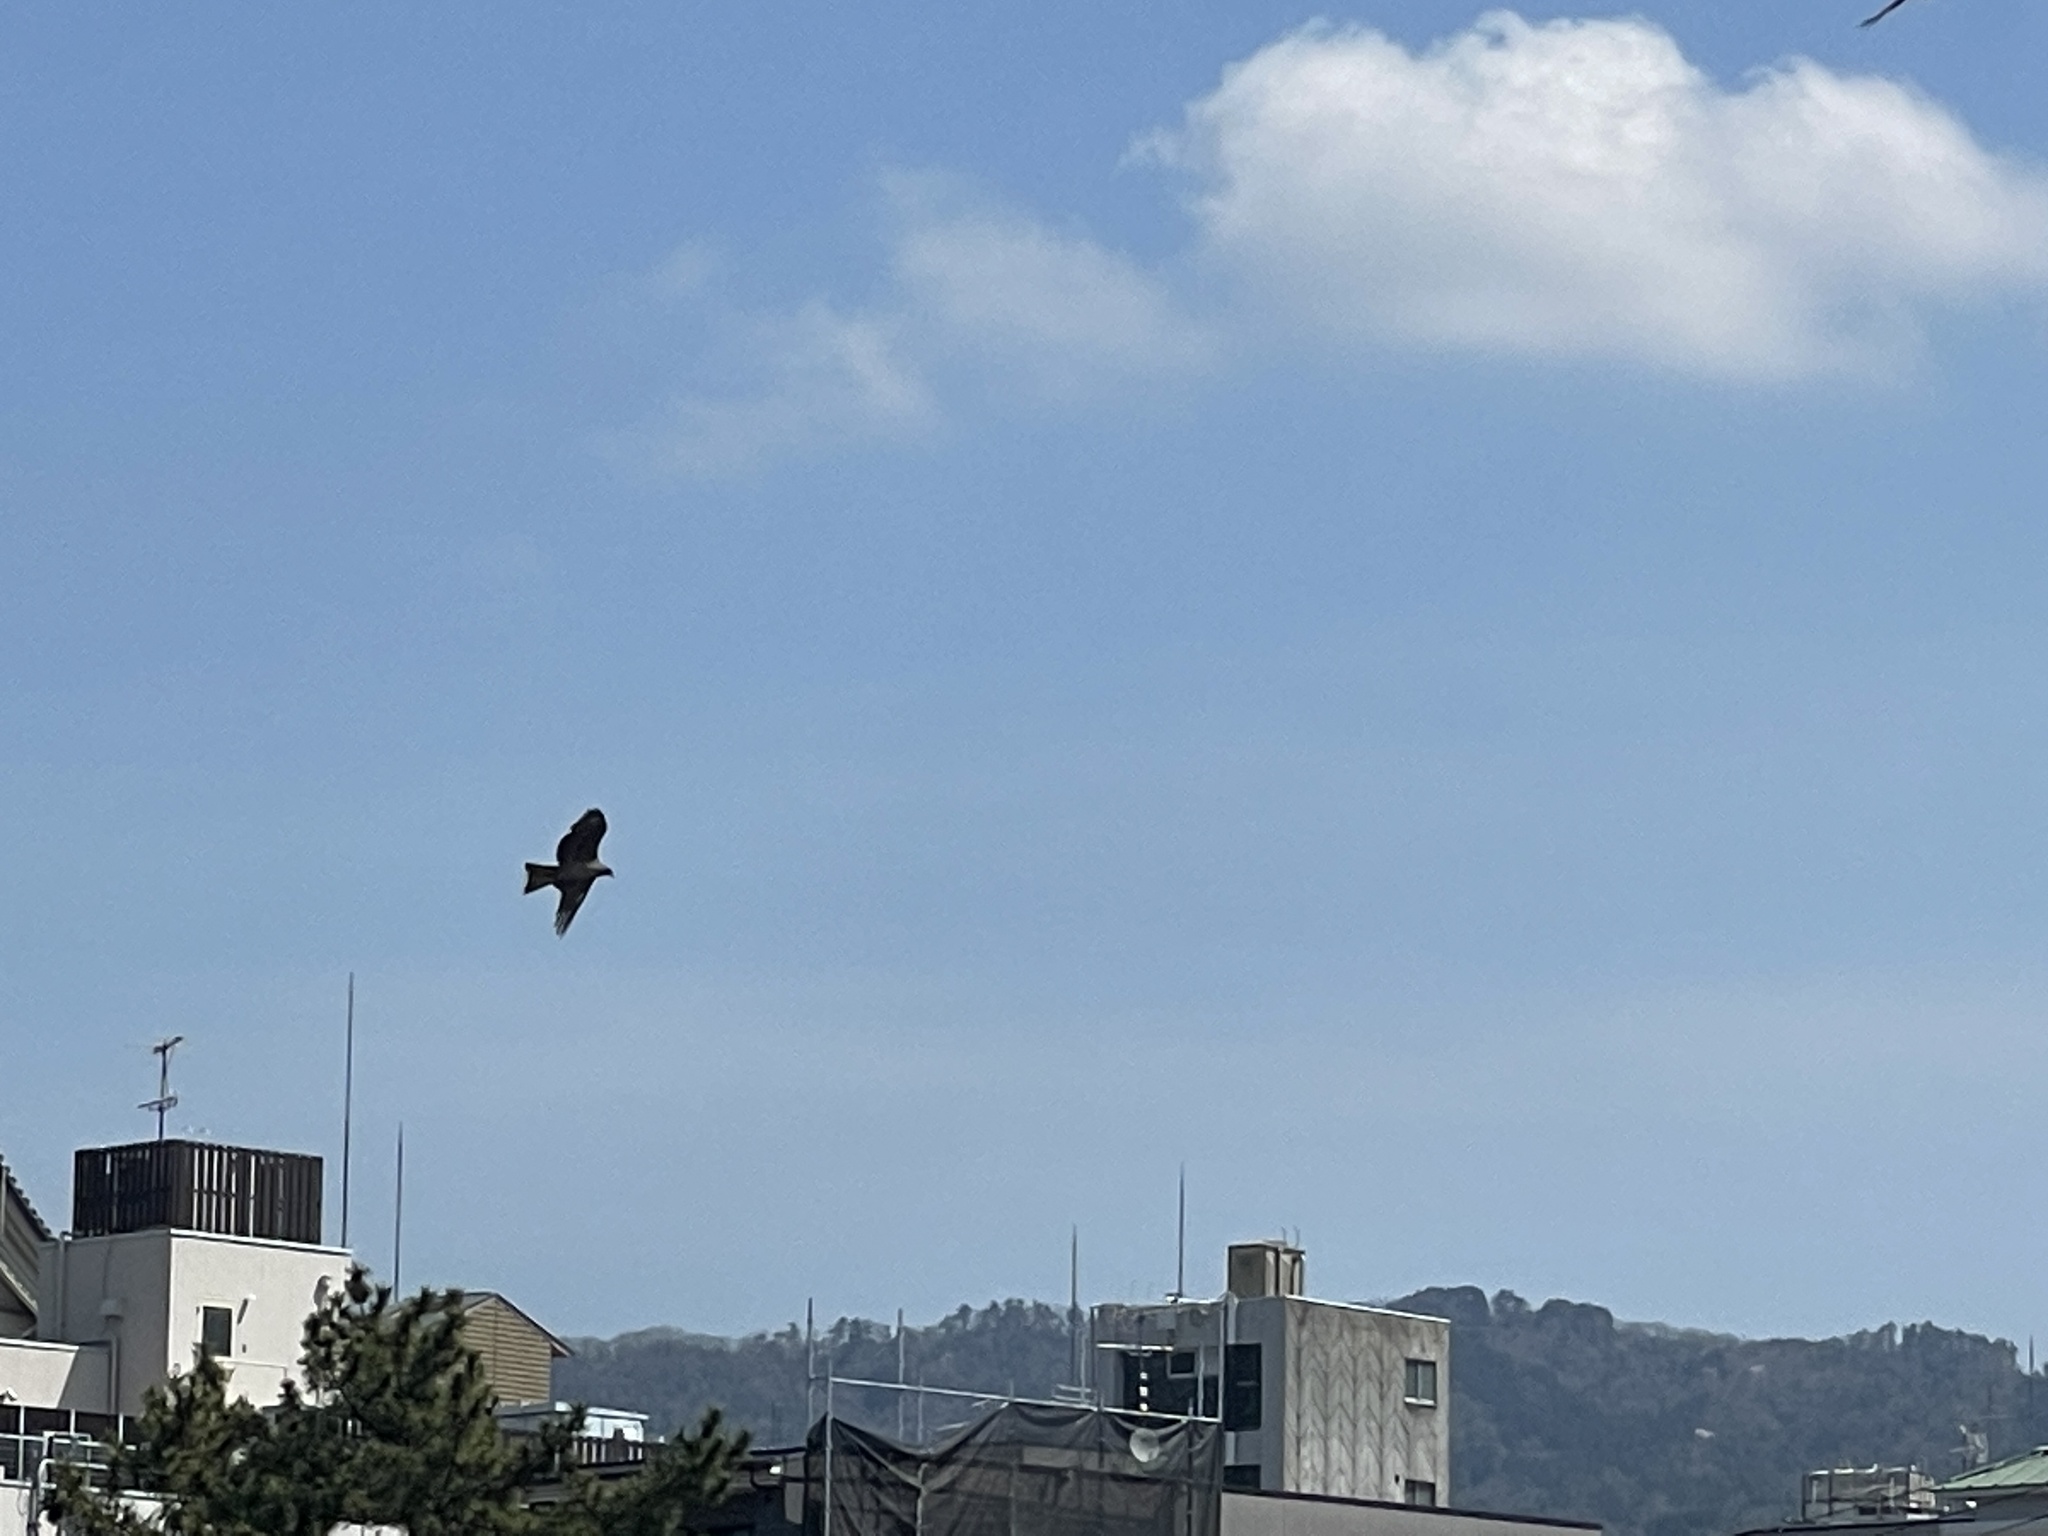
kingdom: Animalia
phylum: Chordata
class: Aves
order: Accipitriformes
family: Accipitridae
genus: Milvus
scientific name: Milvus migrans
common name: Black kite
